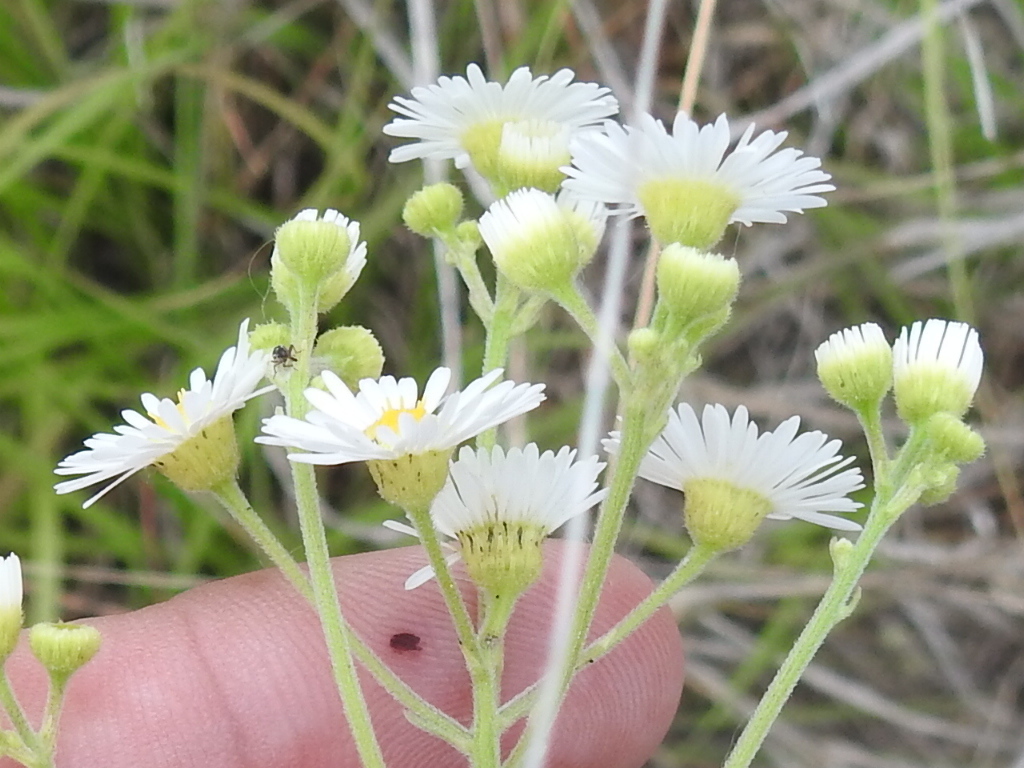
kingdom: Plantae
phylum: Tracheophyta
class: Magnoliopsida
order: Asterales
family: Asteraceae
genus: Erigeron
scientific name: Erigeron strigosus
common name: Common eastern fleabane
